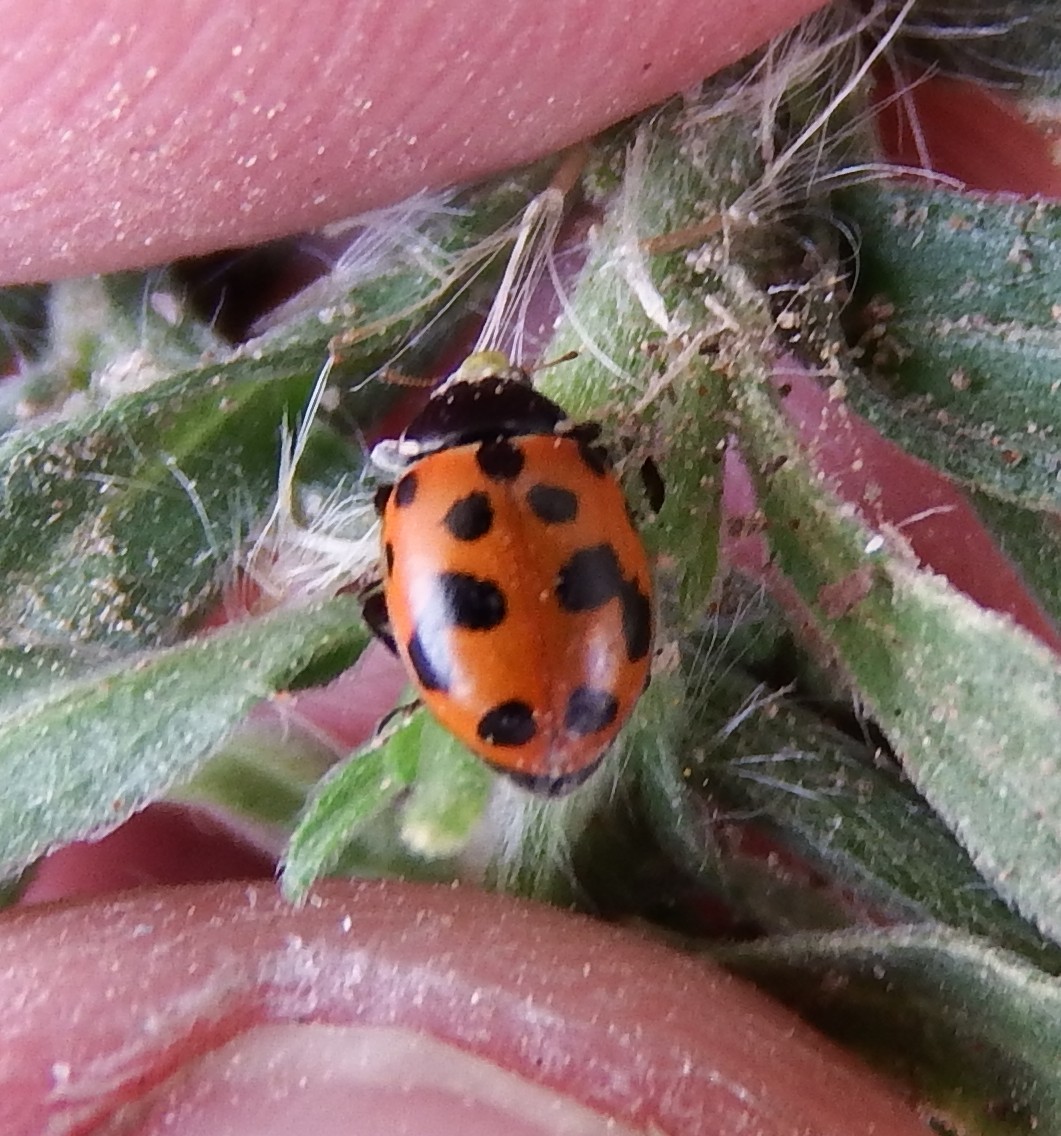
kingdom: Animalia
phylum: Arthropoda
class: Insecta
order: Coleoptera
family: Coccinellidae
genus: Hippodamia
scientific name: Hippodamia variegata
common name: Ladybird beetle
